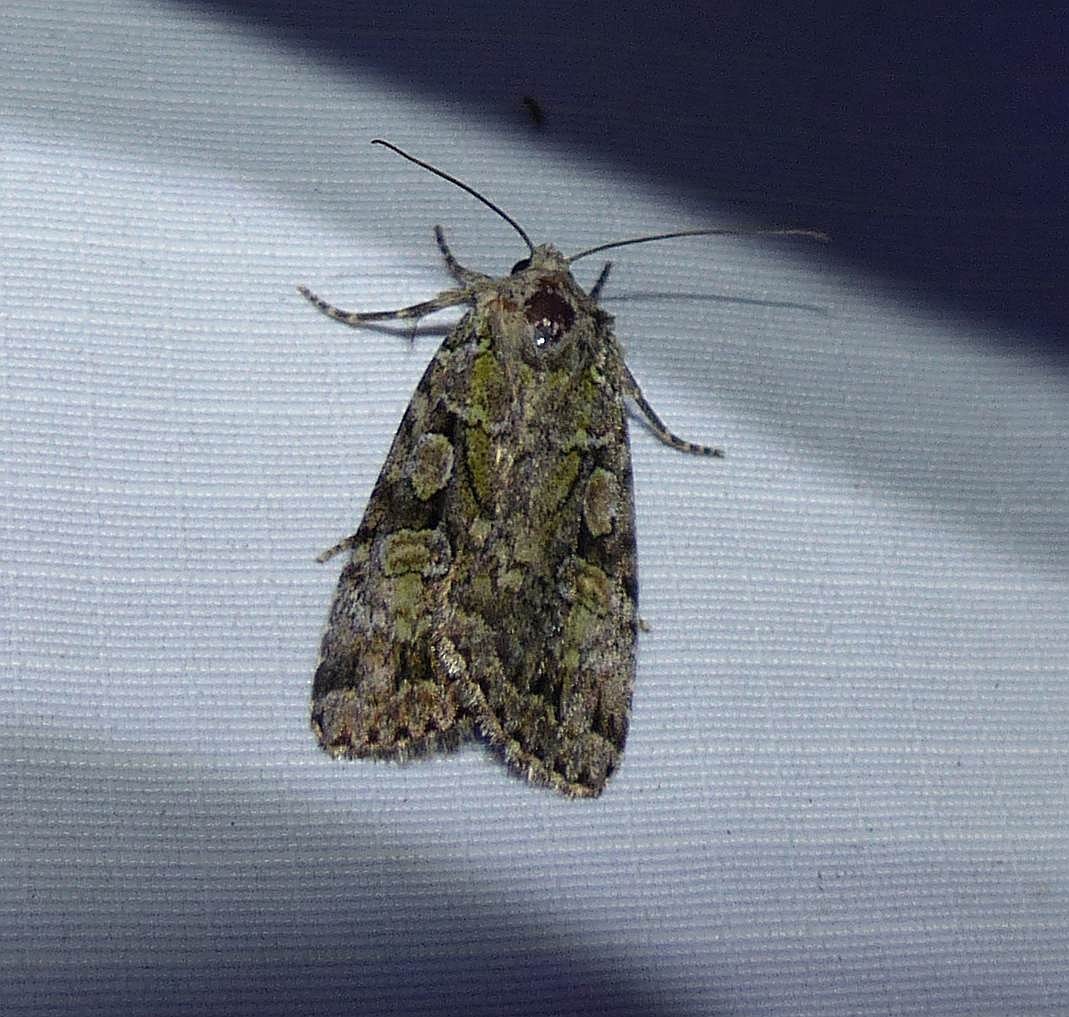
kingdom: Animalia
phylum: Arthropoda
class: Insecta
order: Lepidoptera
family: Noctuidae
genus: Anaplectoides
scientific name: Anaplectoides pressus
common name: Dappled dart
